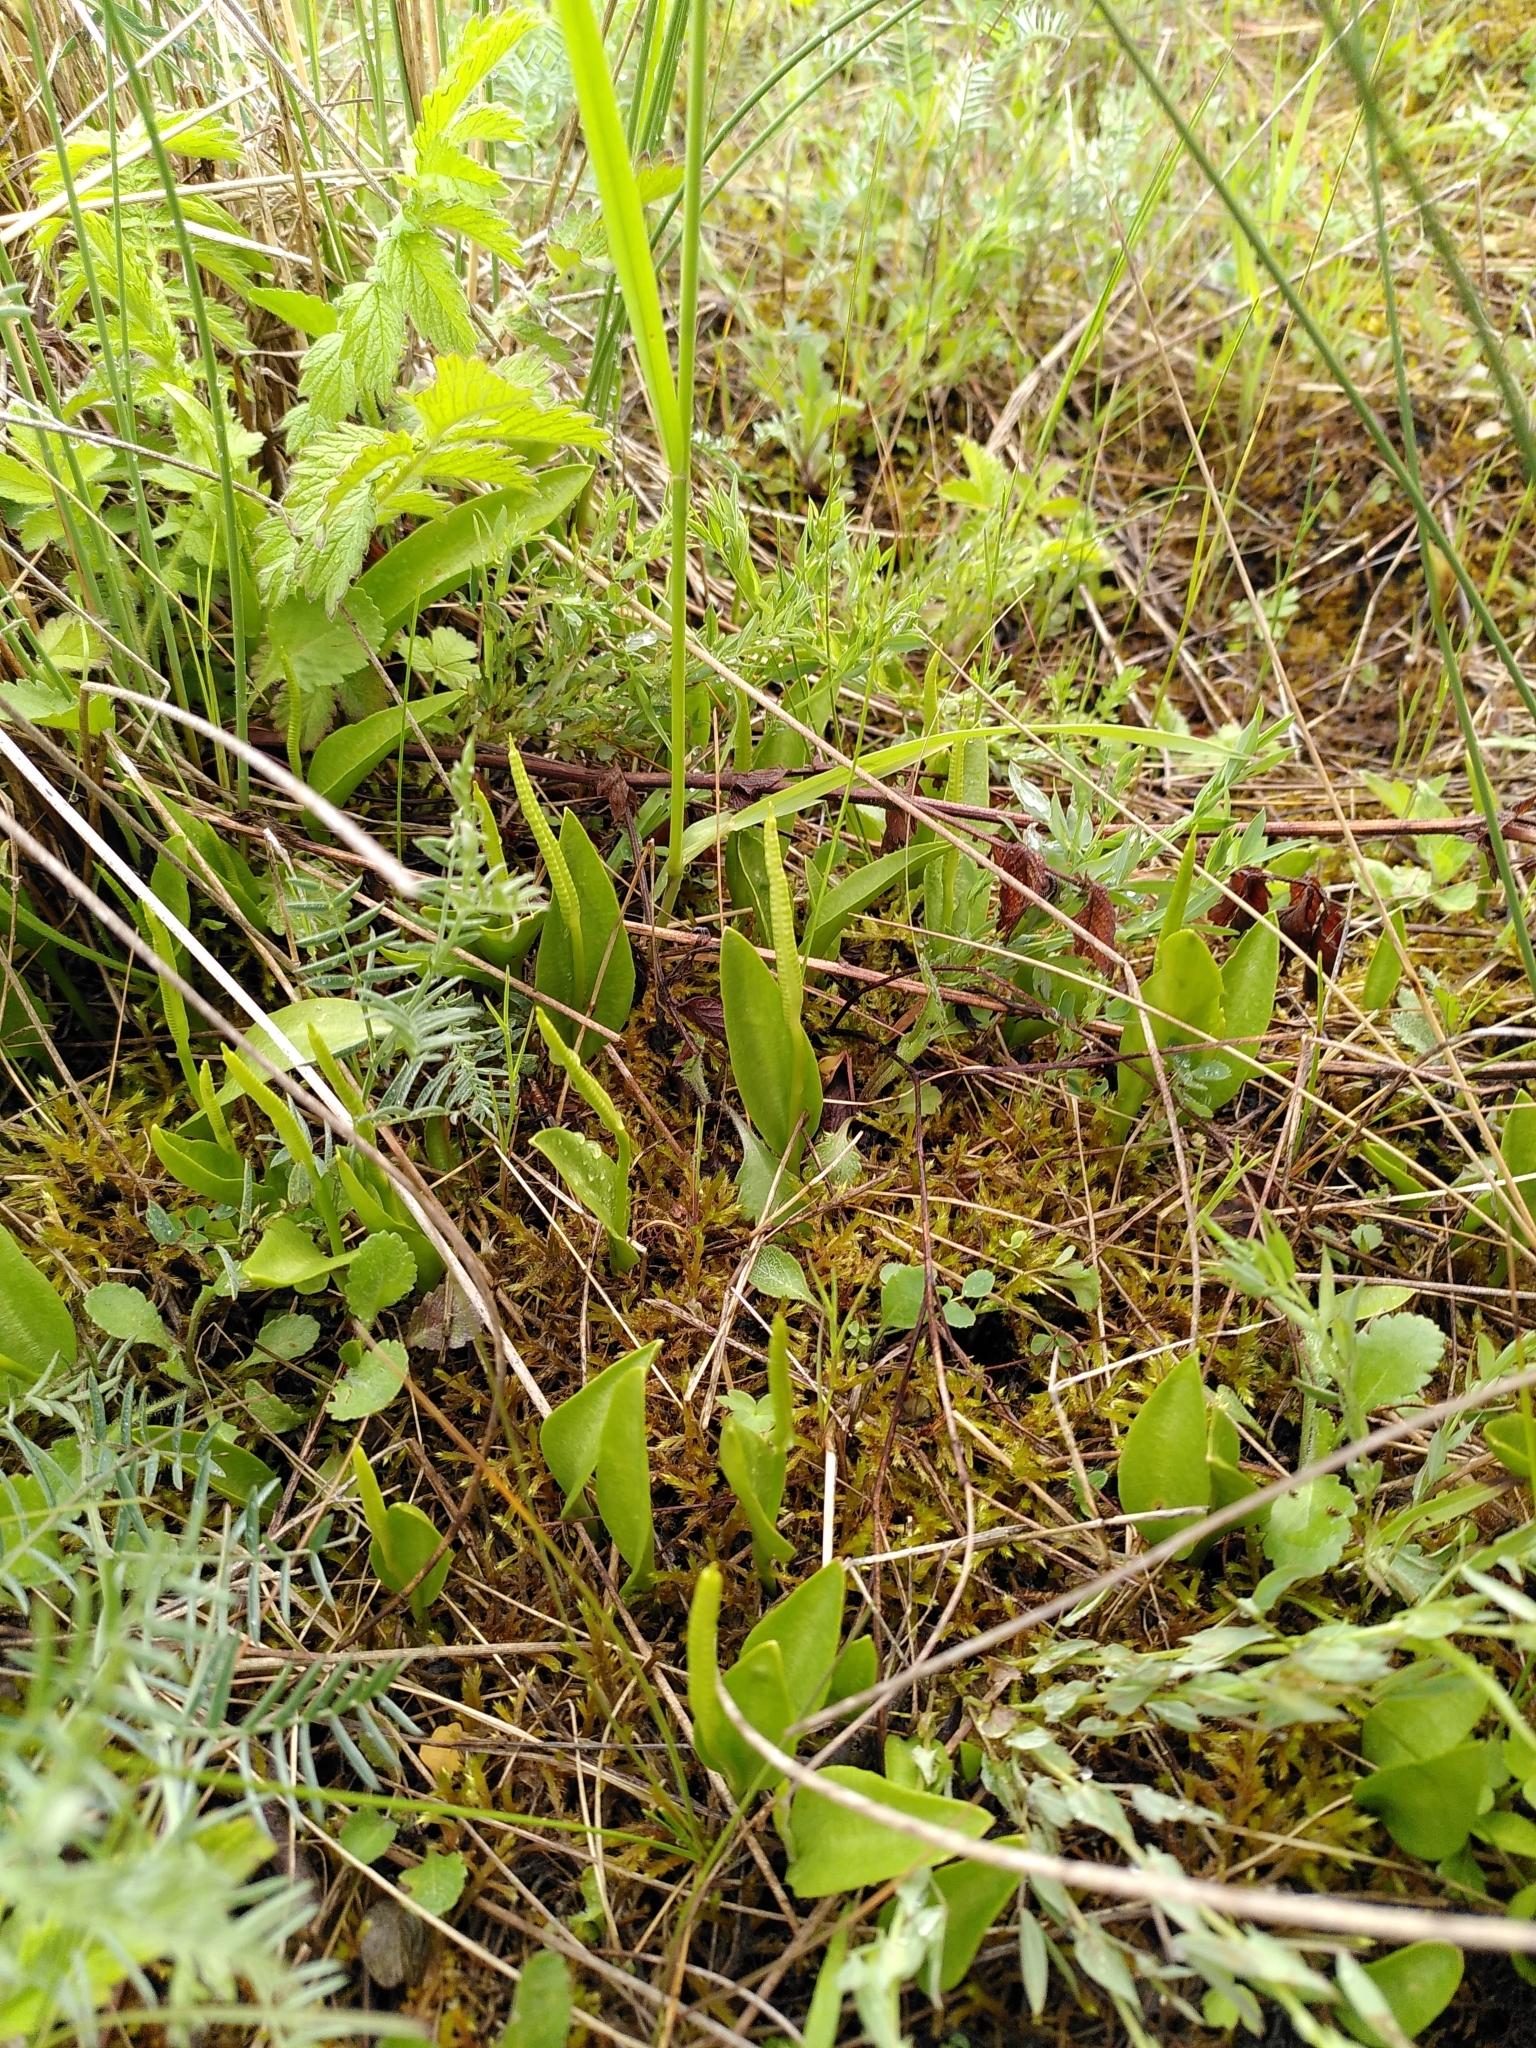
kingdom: Plantae
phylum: Tracheophyta
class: Polypodiopsida
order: Ophioglossales
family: Ophioglossaceae
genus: Ophioglossum
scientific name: Ophioglossum vulgatum
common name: Adder's-tongue
